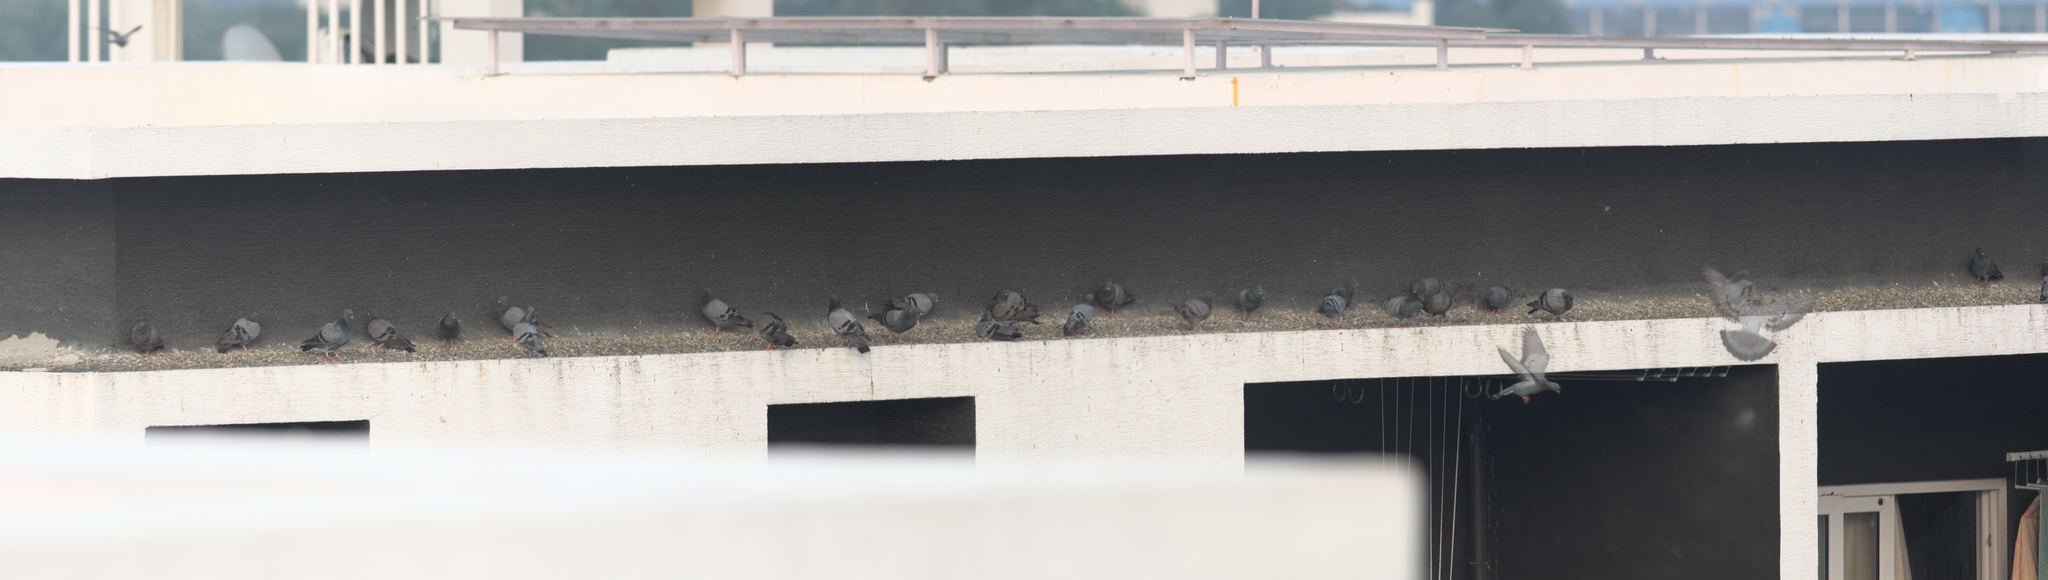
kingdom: Animalia
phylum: Chordata
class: Aves
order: Columbiformes
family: Columbidae
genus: Columba
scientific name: Columba livia
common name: Rock pigeon
